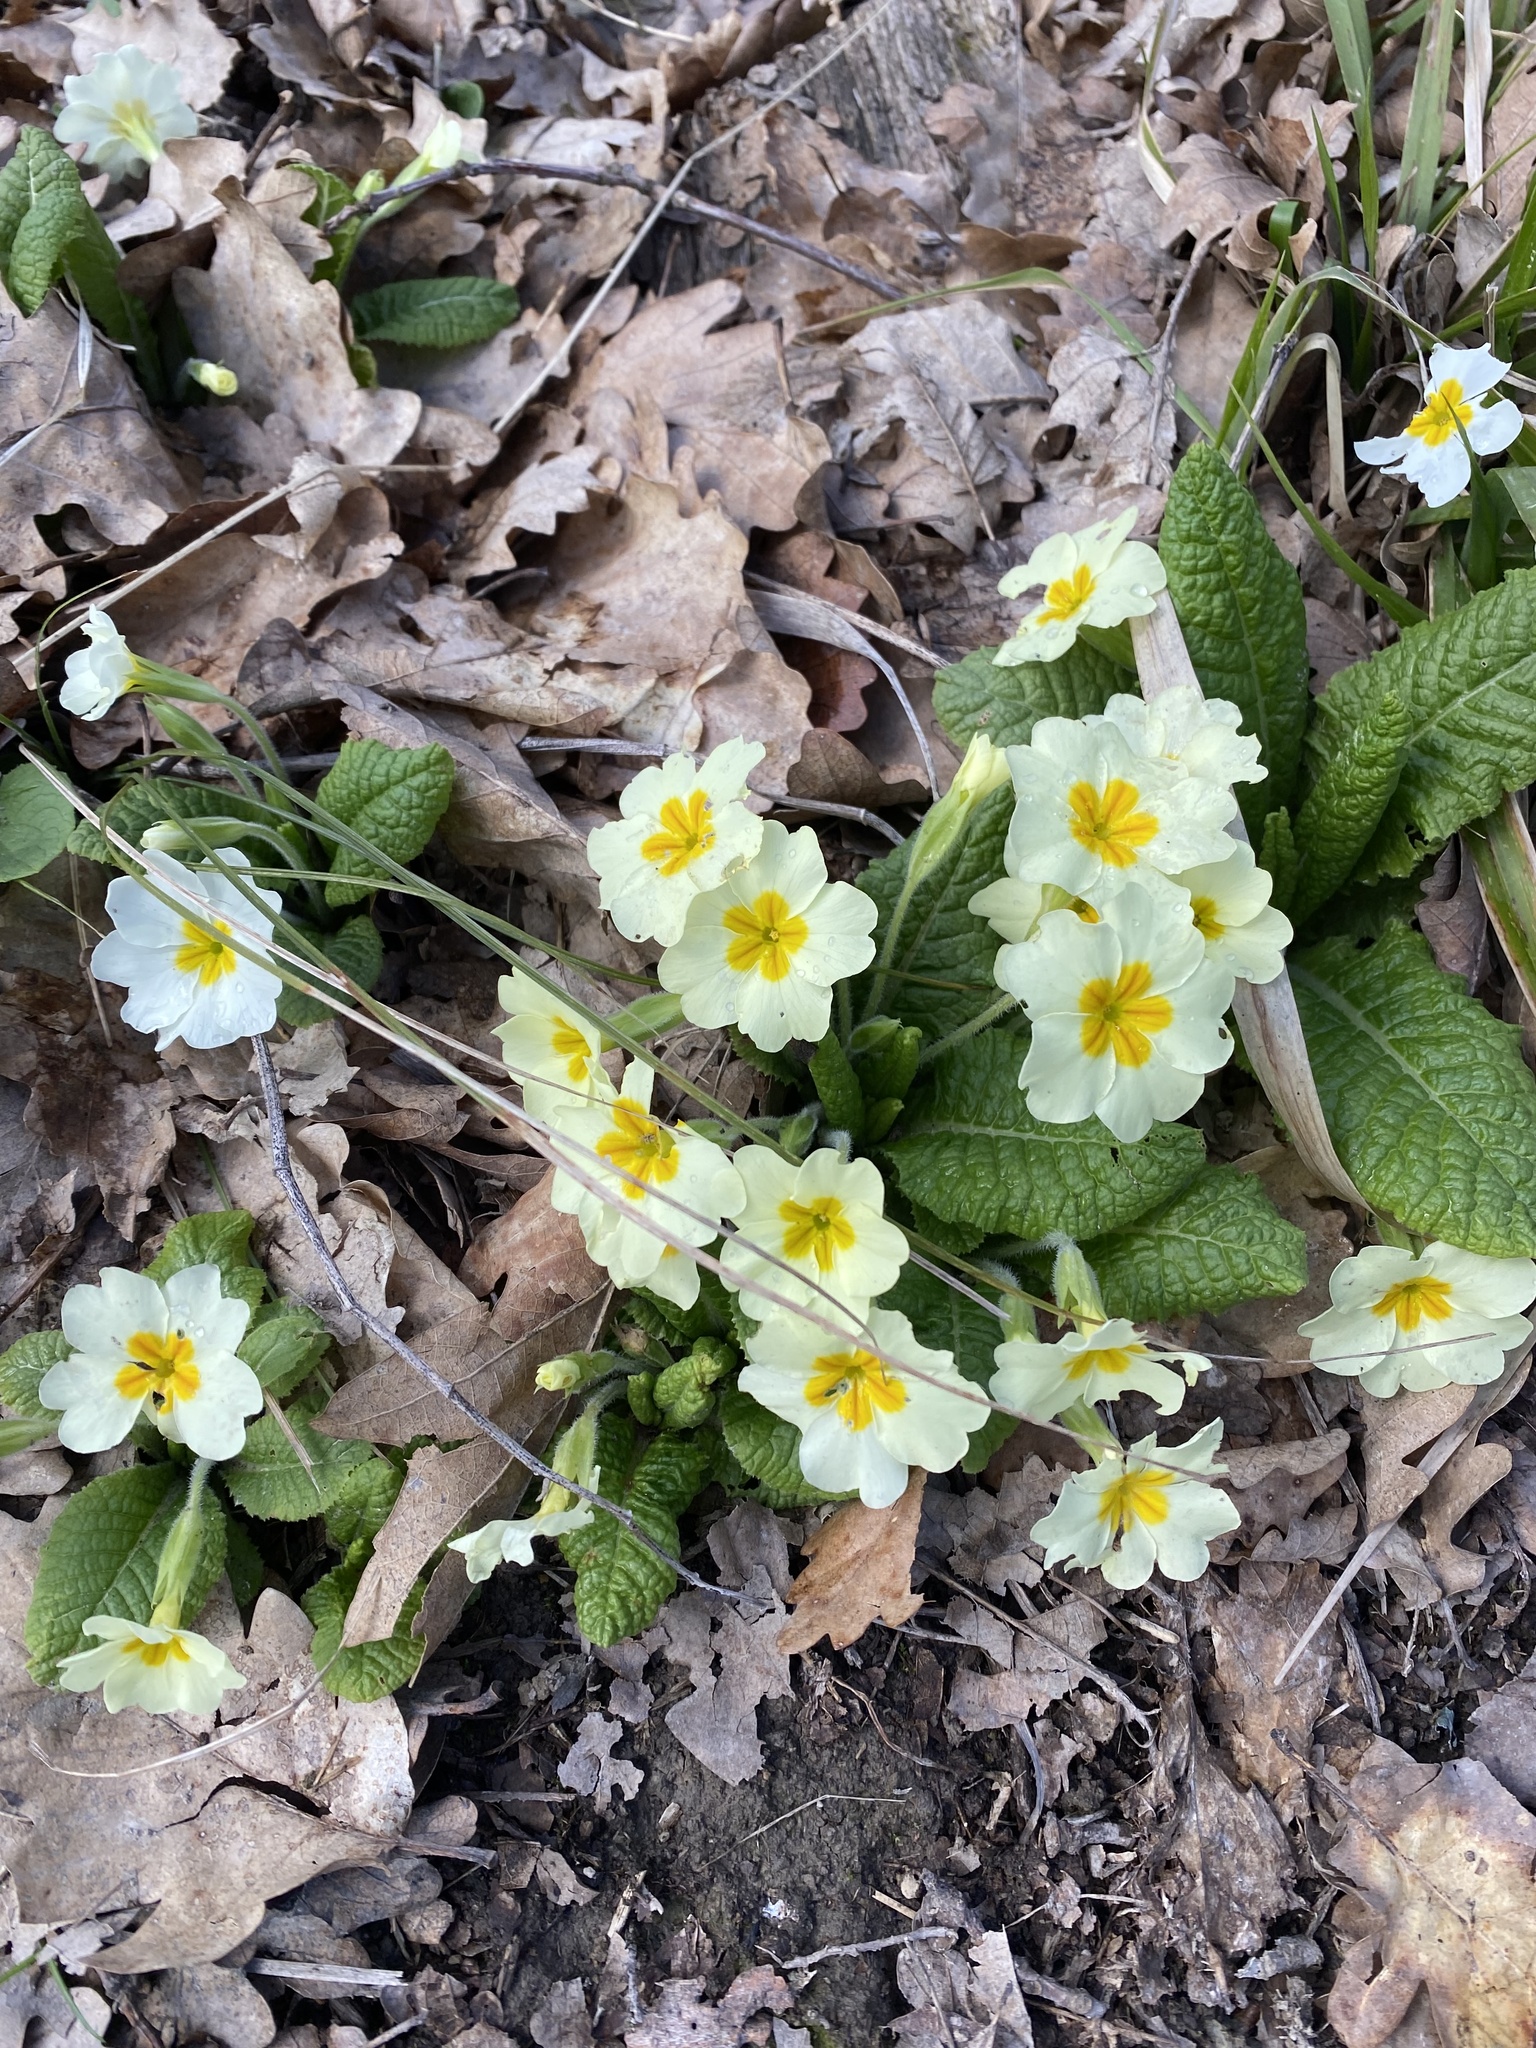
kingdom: Plantae
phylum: Tracheophyta
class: Magnoliopsida
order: Ericales
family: Primulaceae
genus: Primula
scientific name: Primula vulgaris
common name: Primrose
